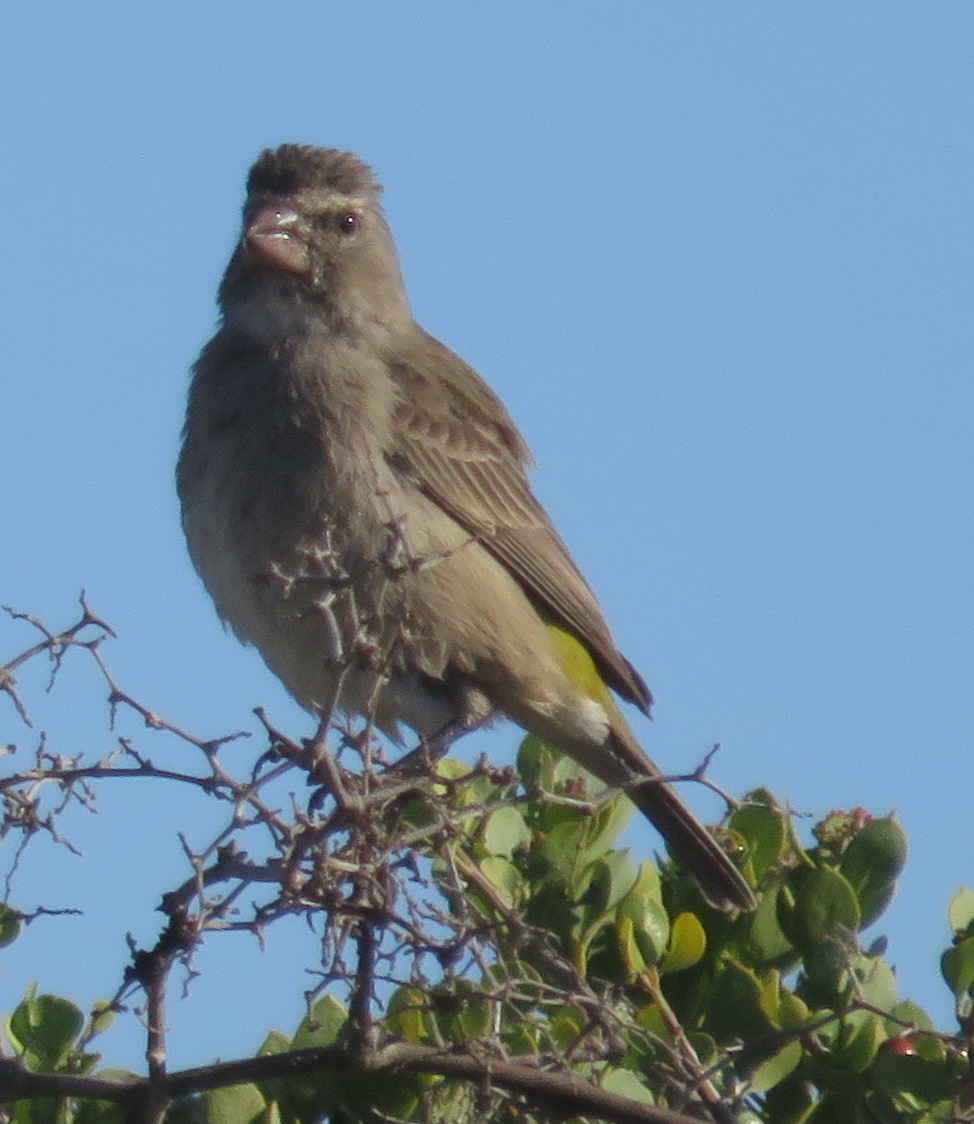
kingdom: Animalia
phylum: Chordata
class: Aves
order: Passeriformes
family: Fringillidae
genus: Crithagra
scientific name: Crithagra albogularis
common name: White-throated canary
